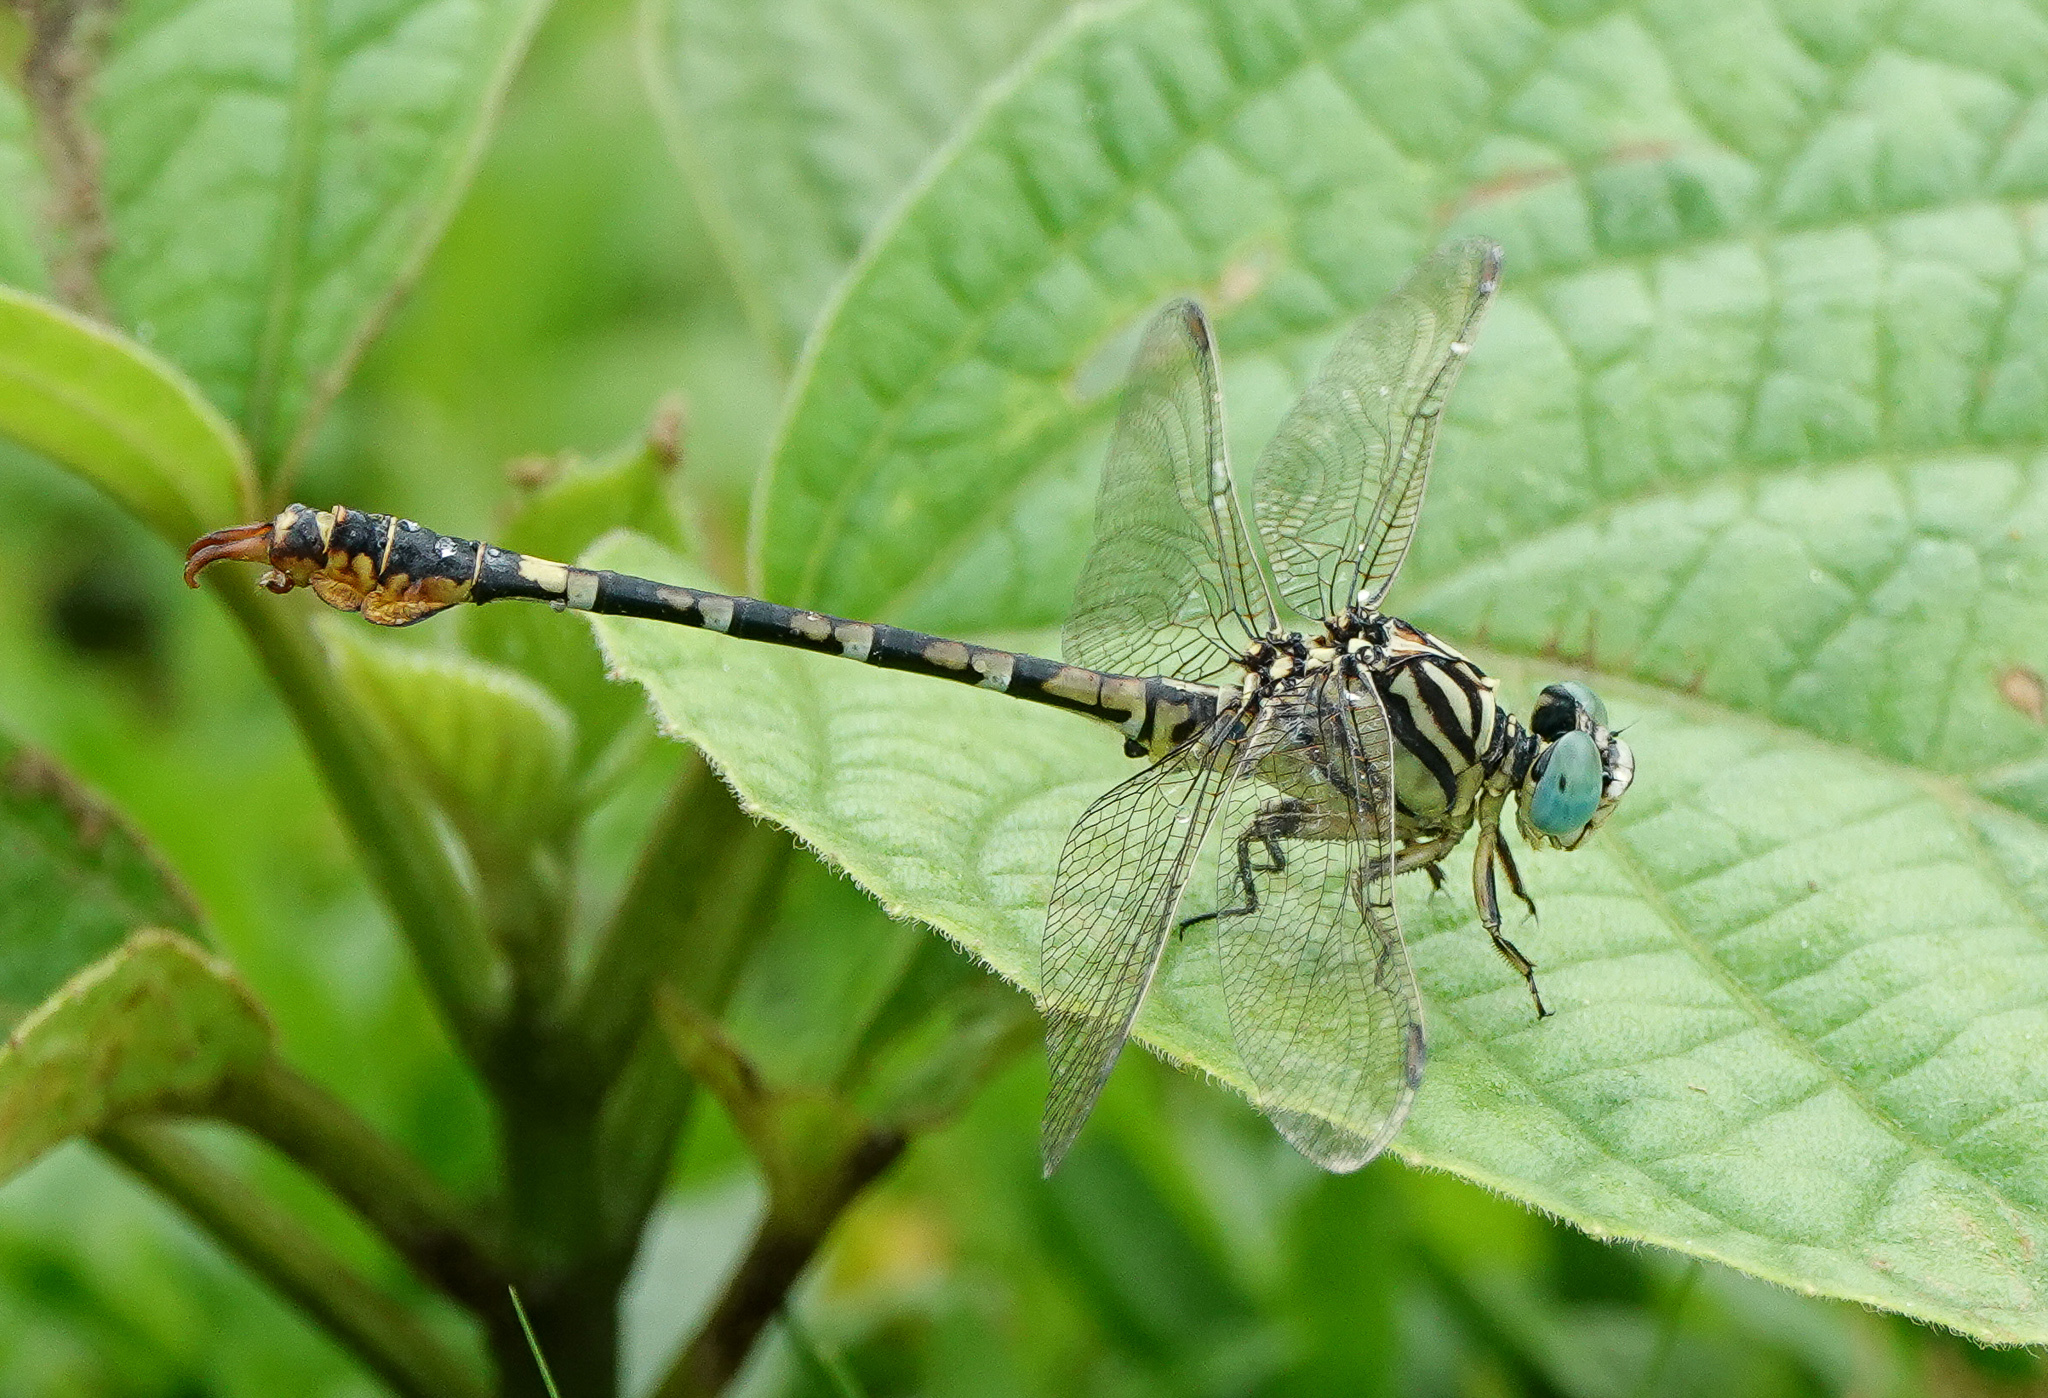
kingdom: Animalia
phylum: Arthropoda
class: Insecta
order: Odonata
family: Gomphidae
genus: Paragomphus
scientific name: Paragomphus lineatus
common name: Lined hooktail
